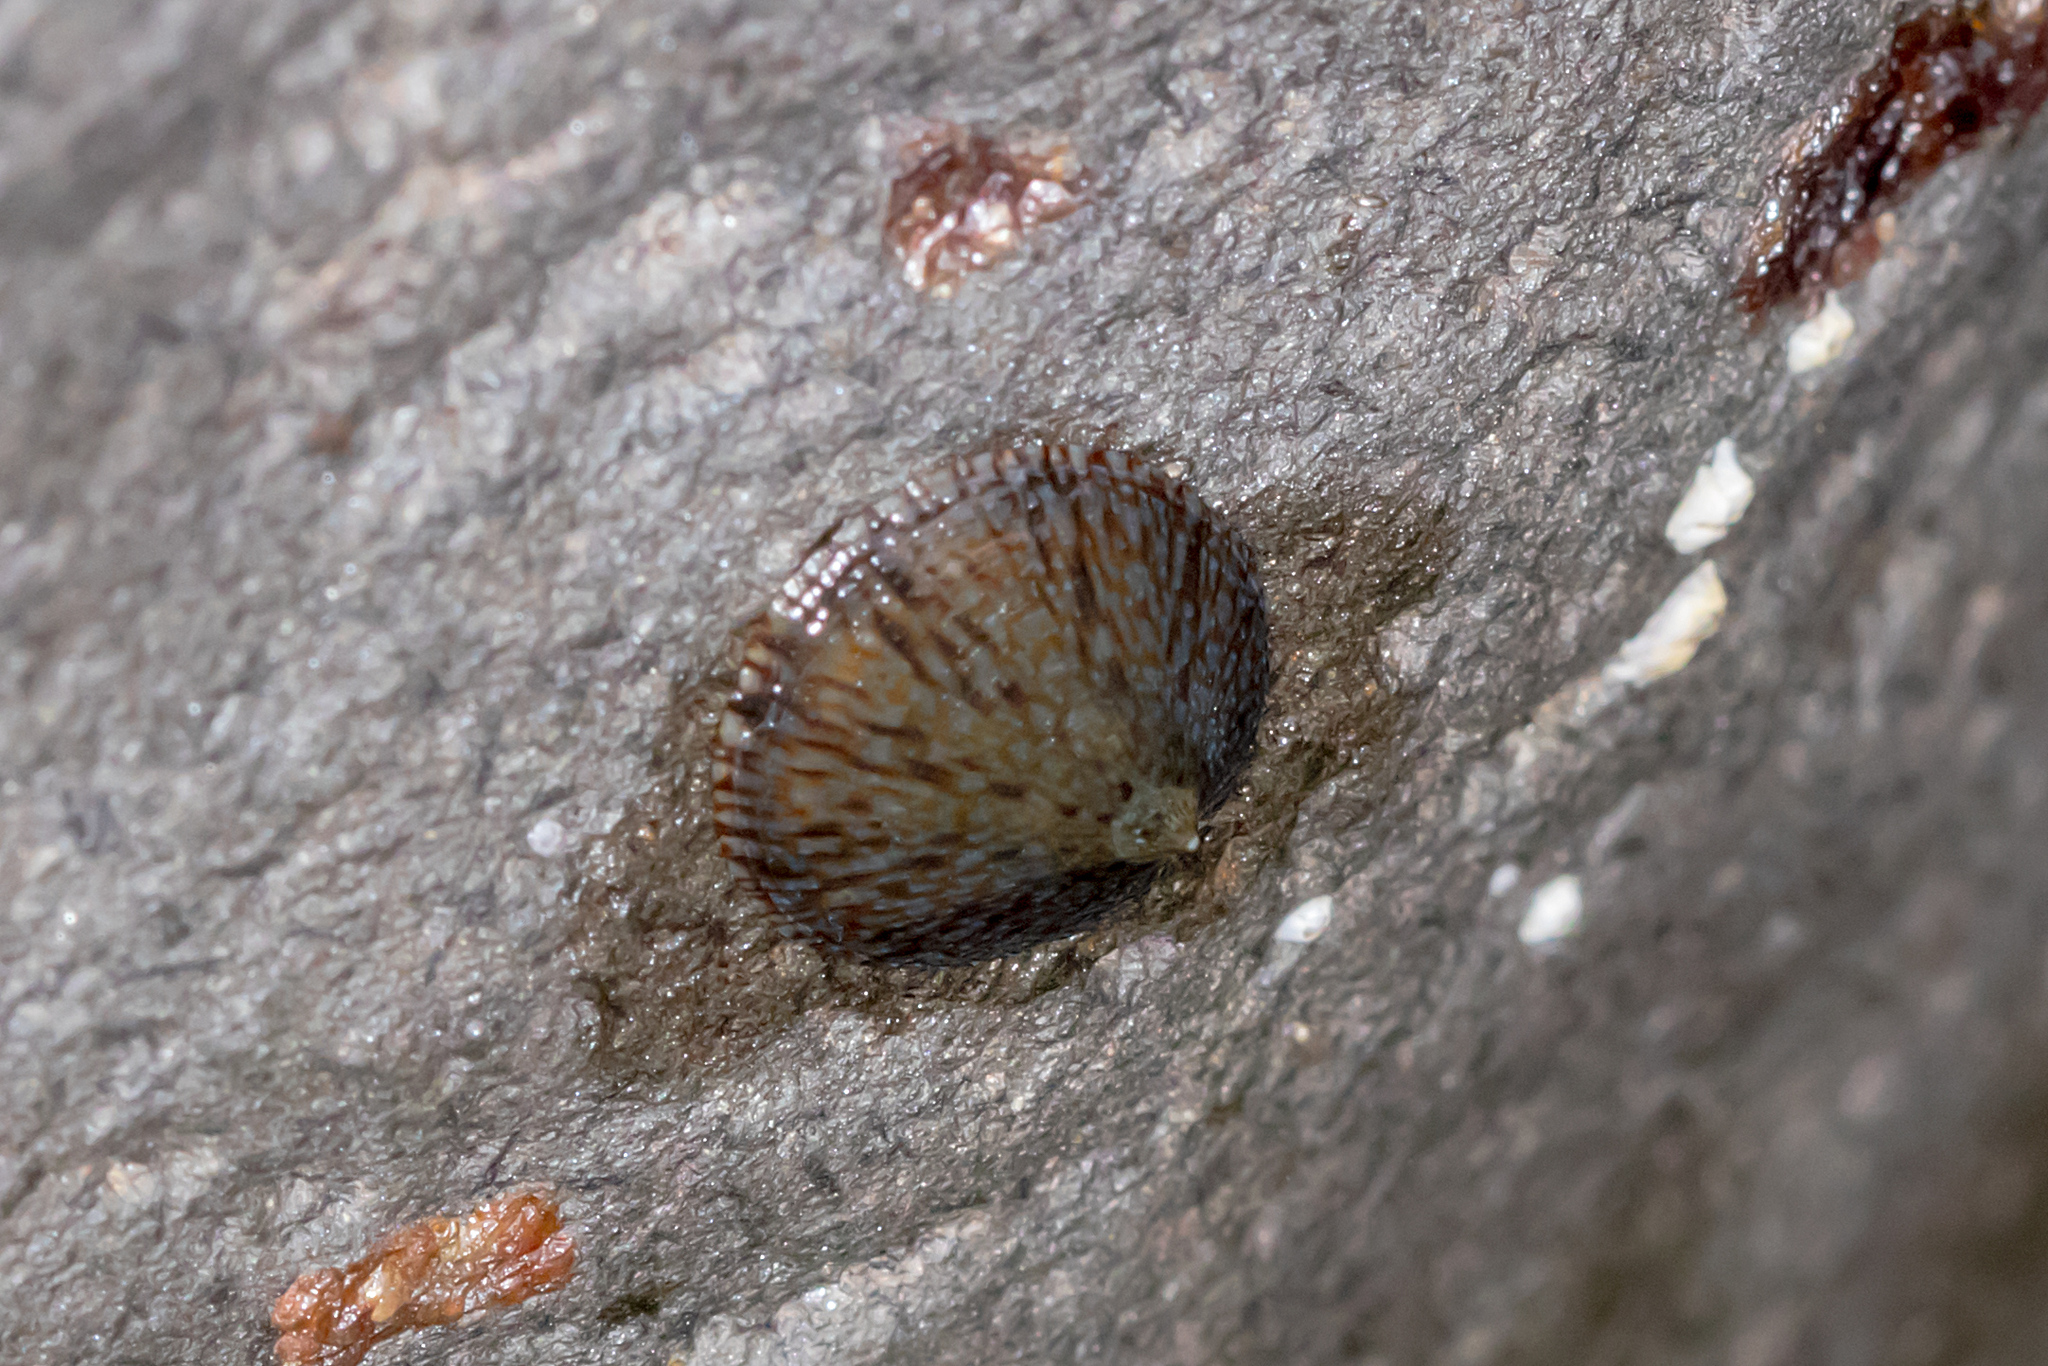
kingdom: Animalia
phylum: Mollusca
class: Gastropoda
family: Nacellidae
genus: Cellana
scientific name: Cellana tramoserica
